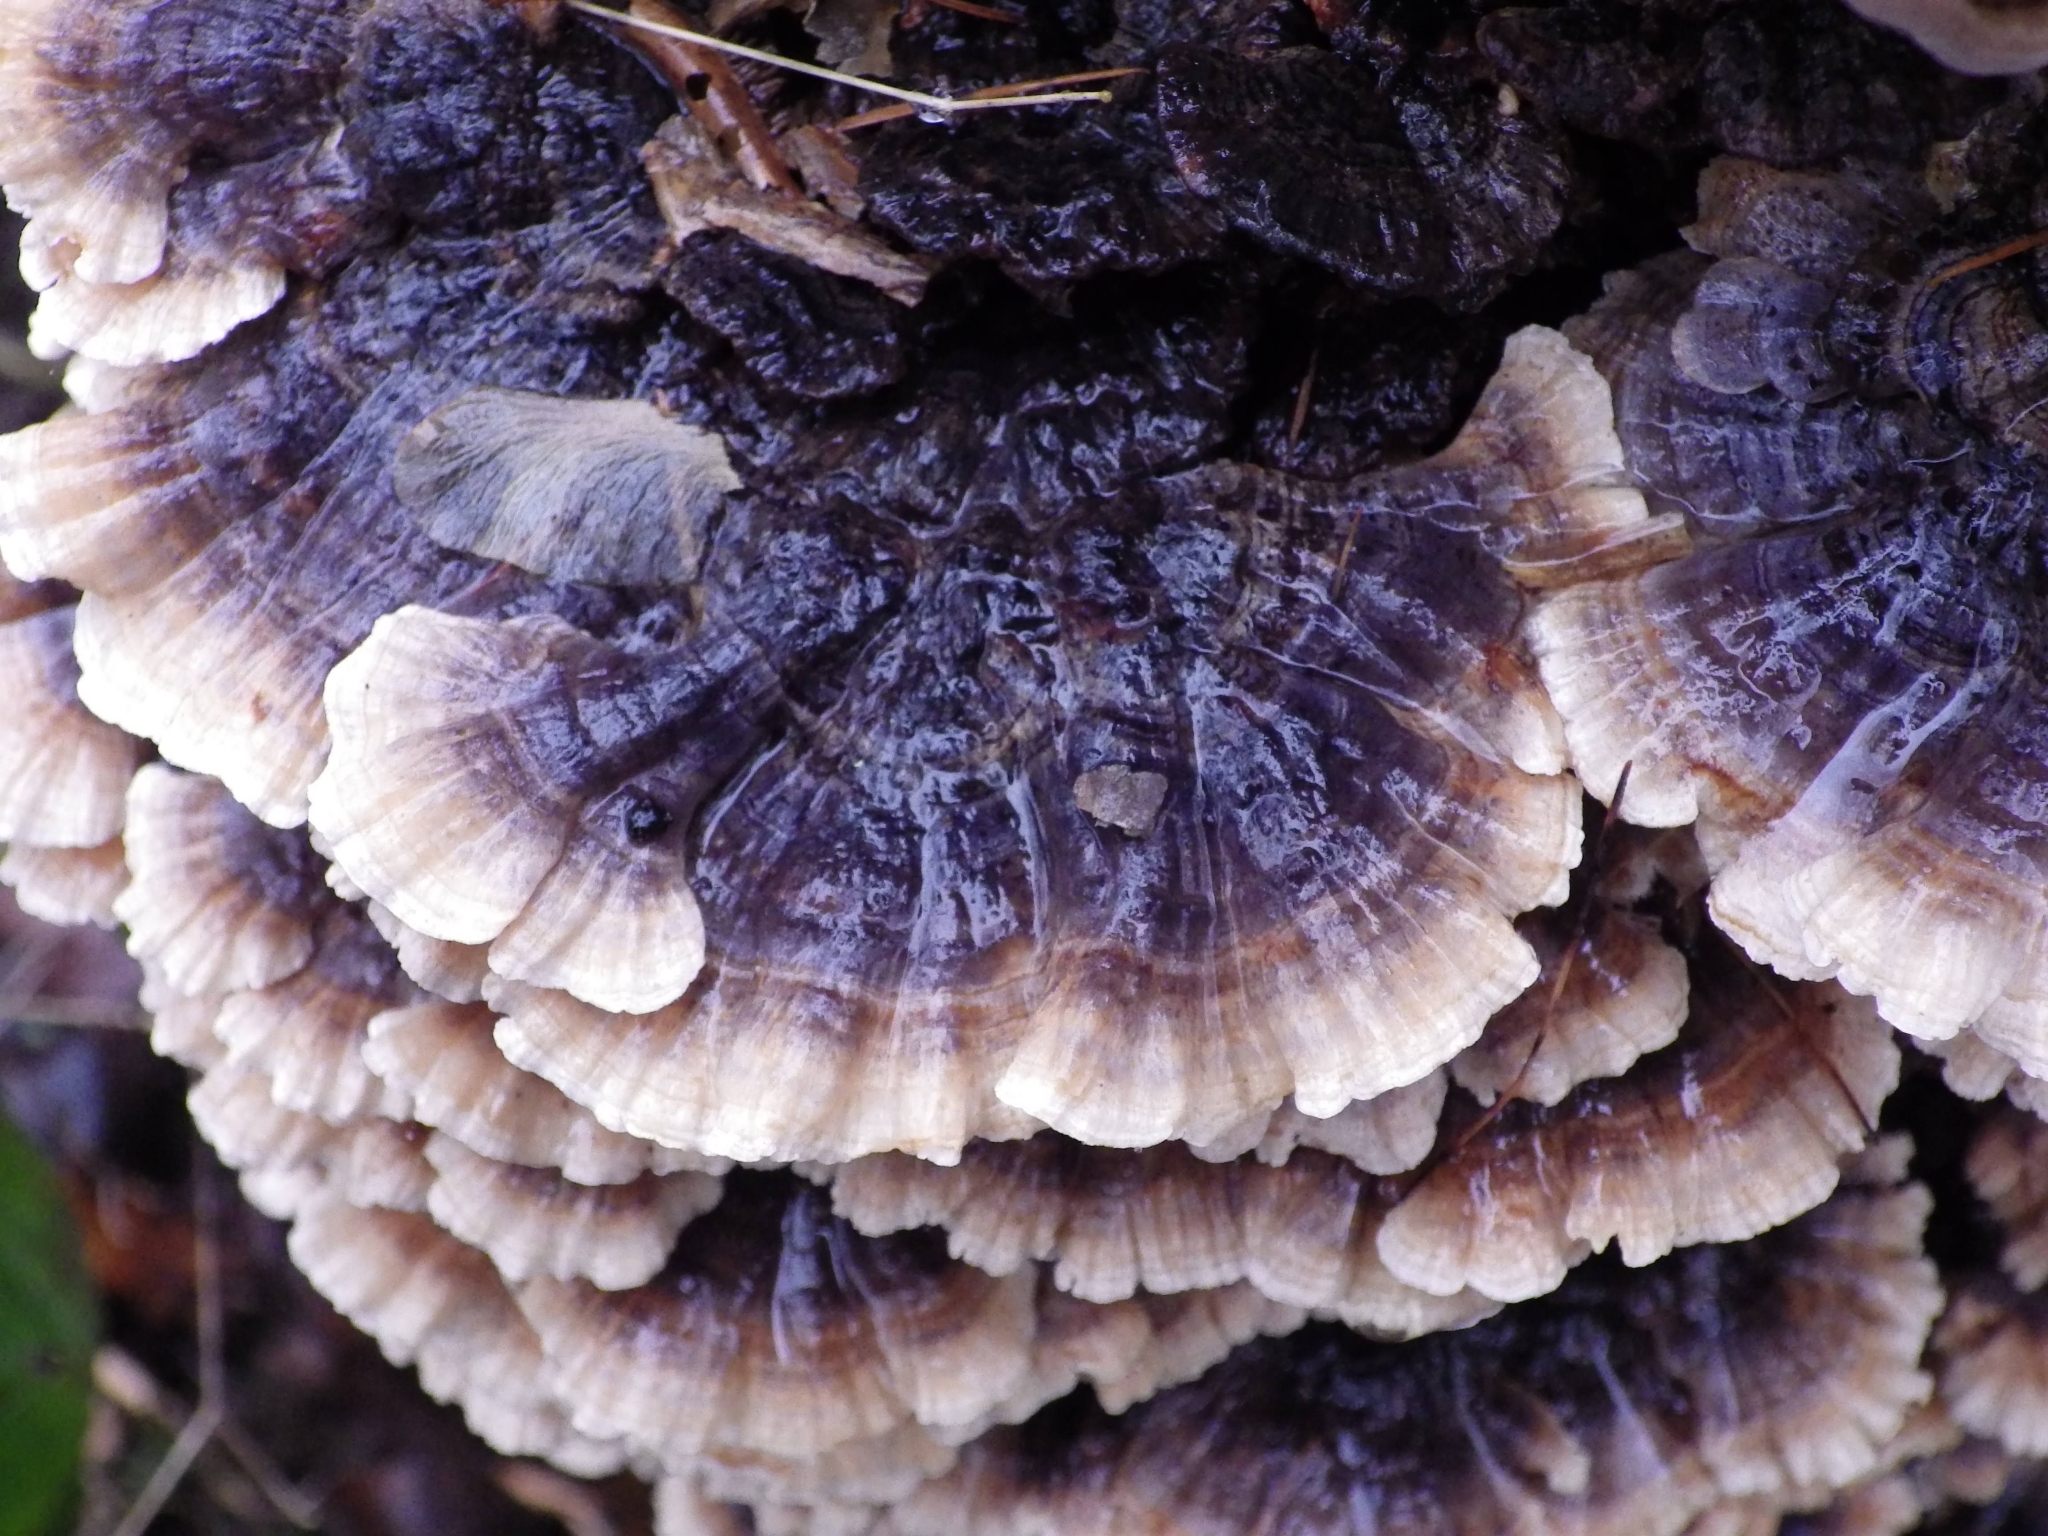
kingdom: Fungi
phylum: Basidiomycota
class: Agaricomycetes
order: Polyporales
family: Polyporaceae
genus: Trametes
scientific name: Trametes versicolor
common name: Turkeytail
